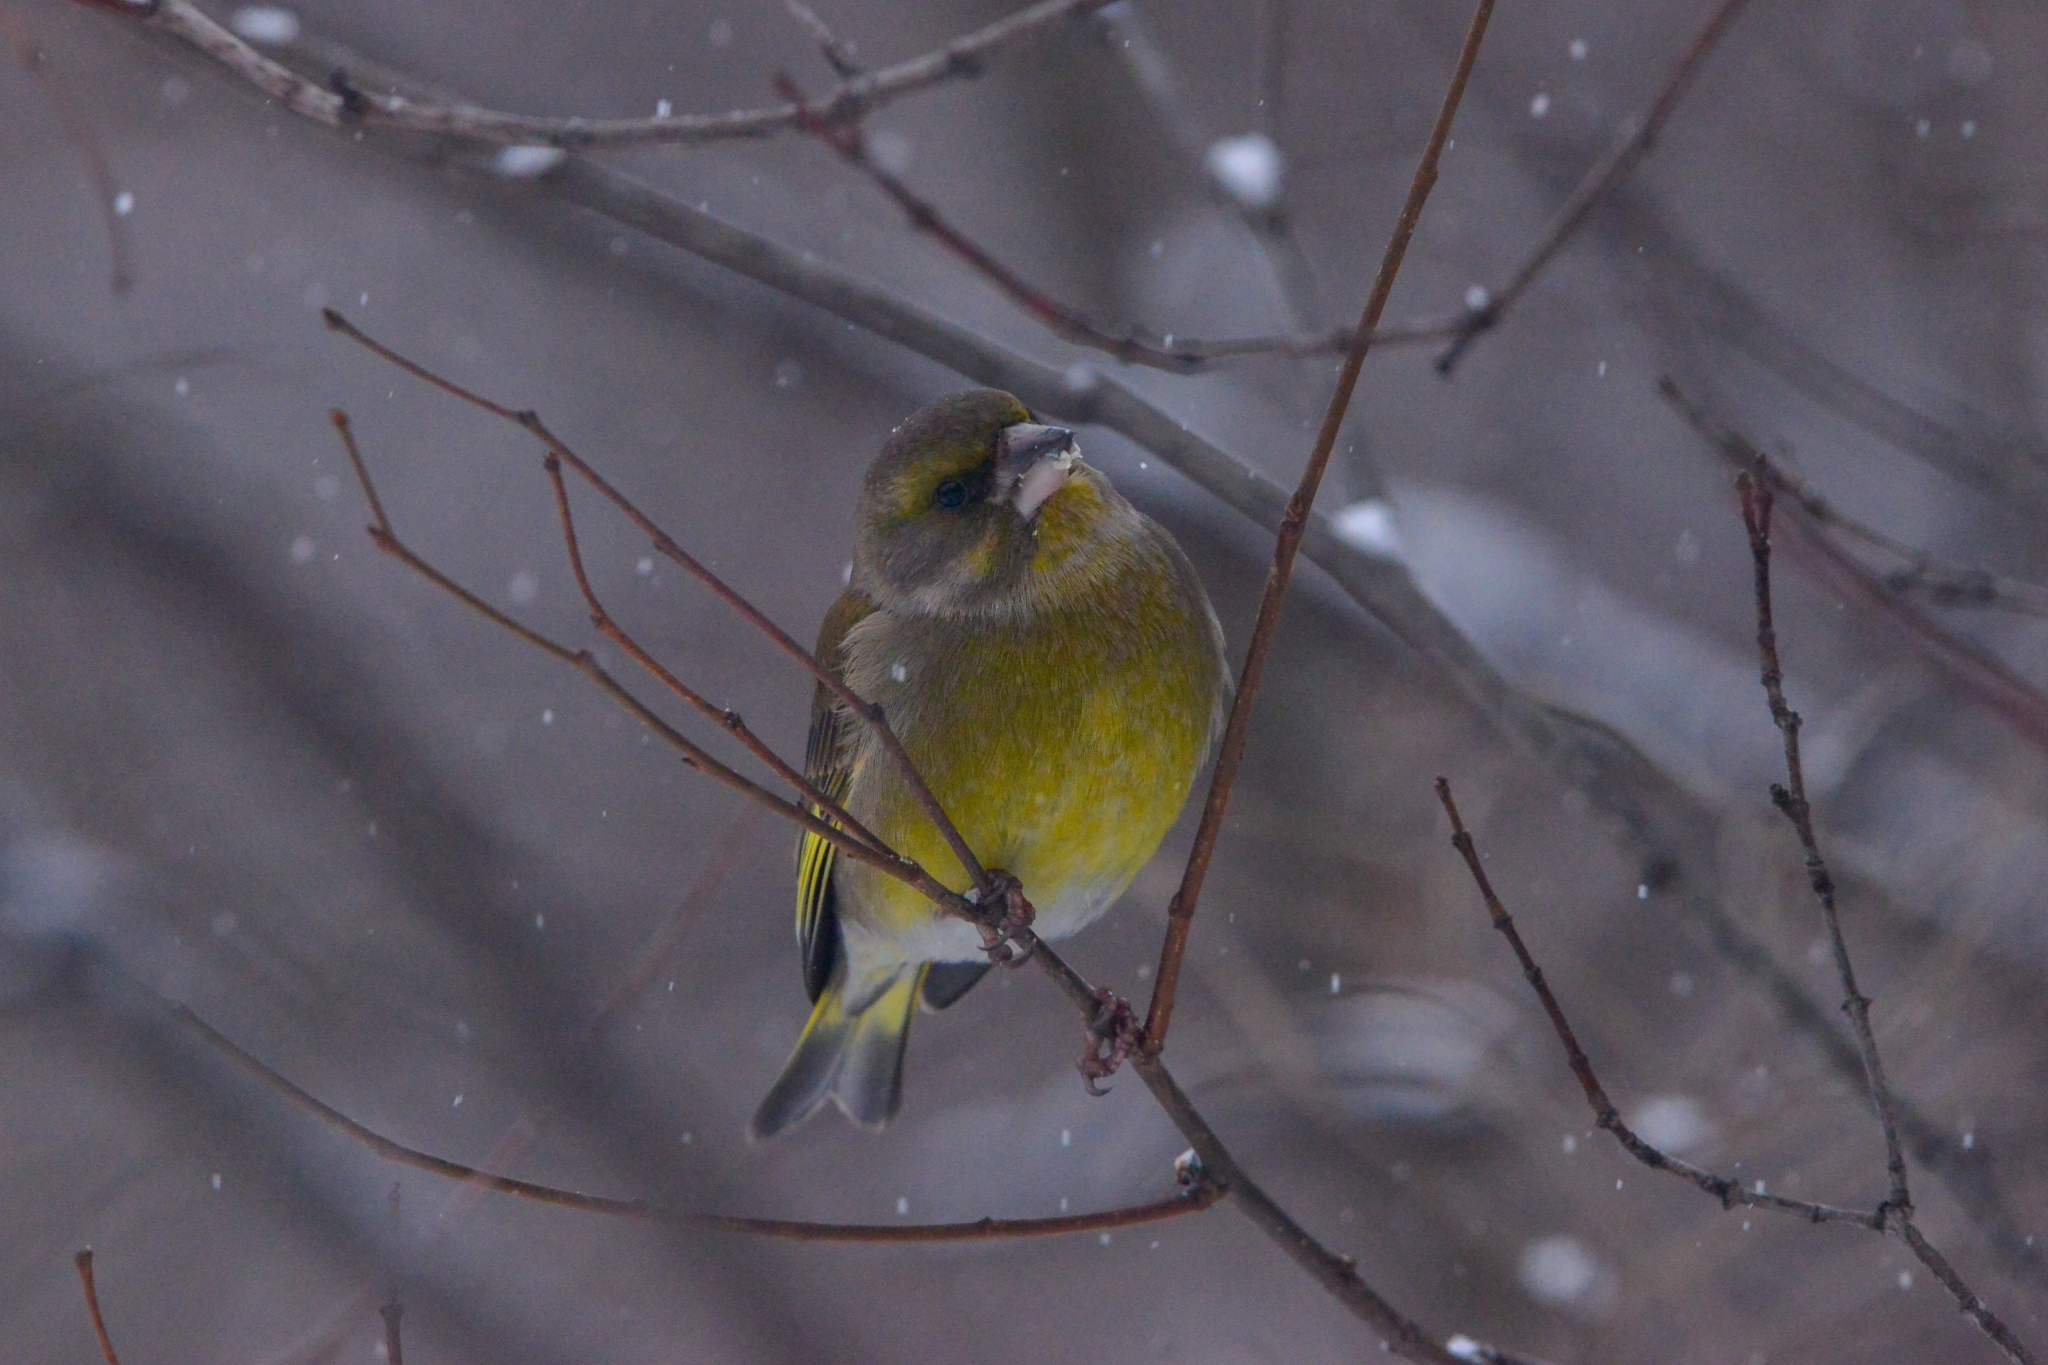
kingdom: Plantae
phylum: Tracheophyta
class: Liliopsida
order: Poales
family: Poaceae
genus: Chloris
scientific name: Chloris chloris
